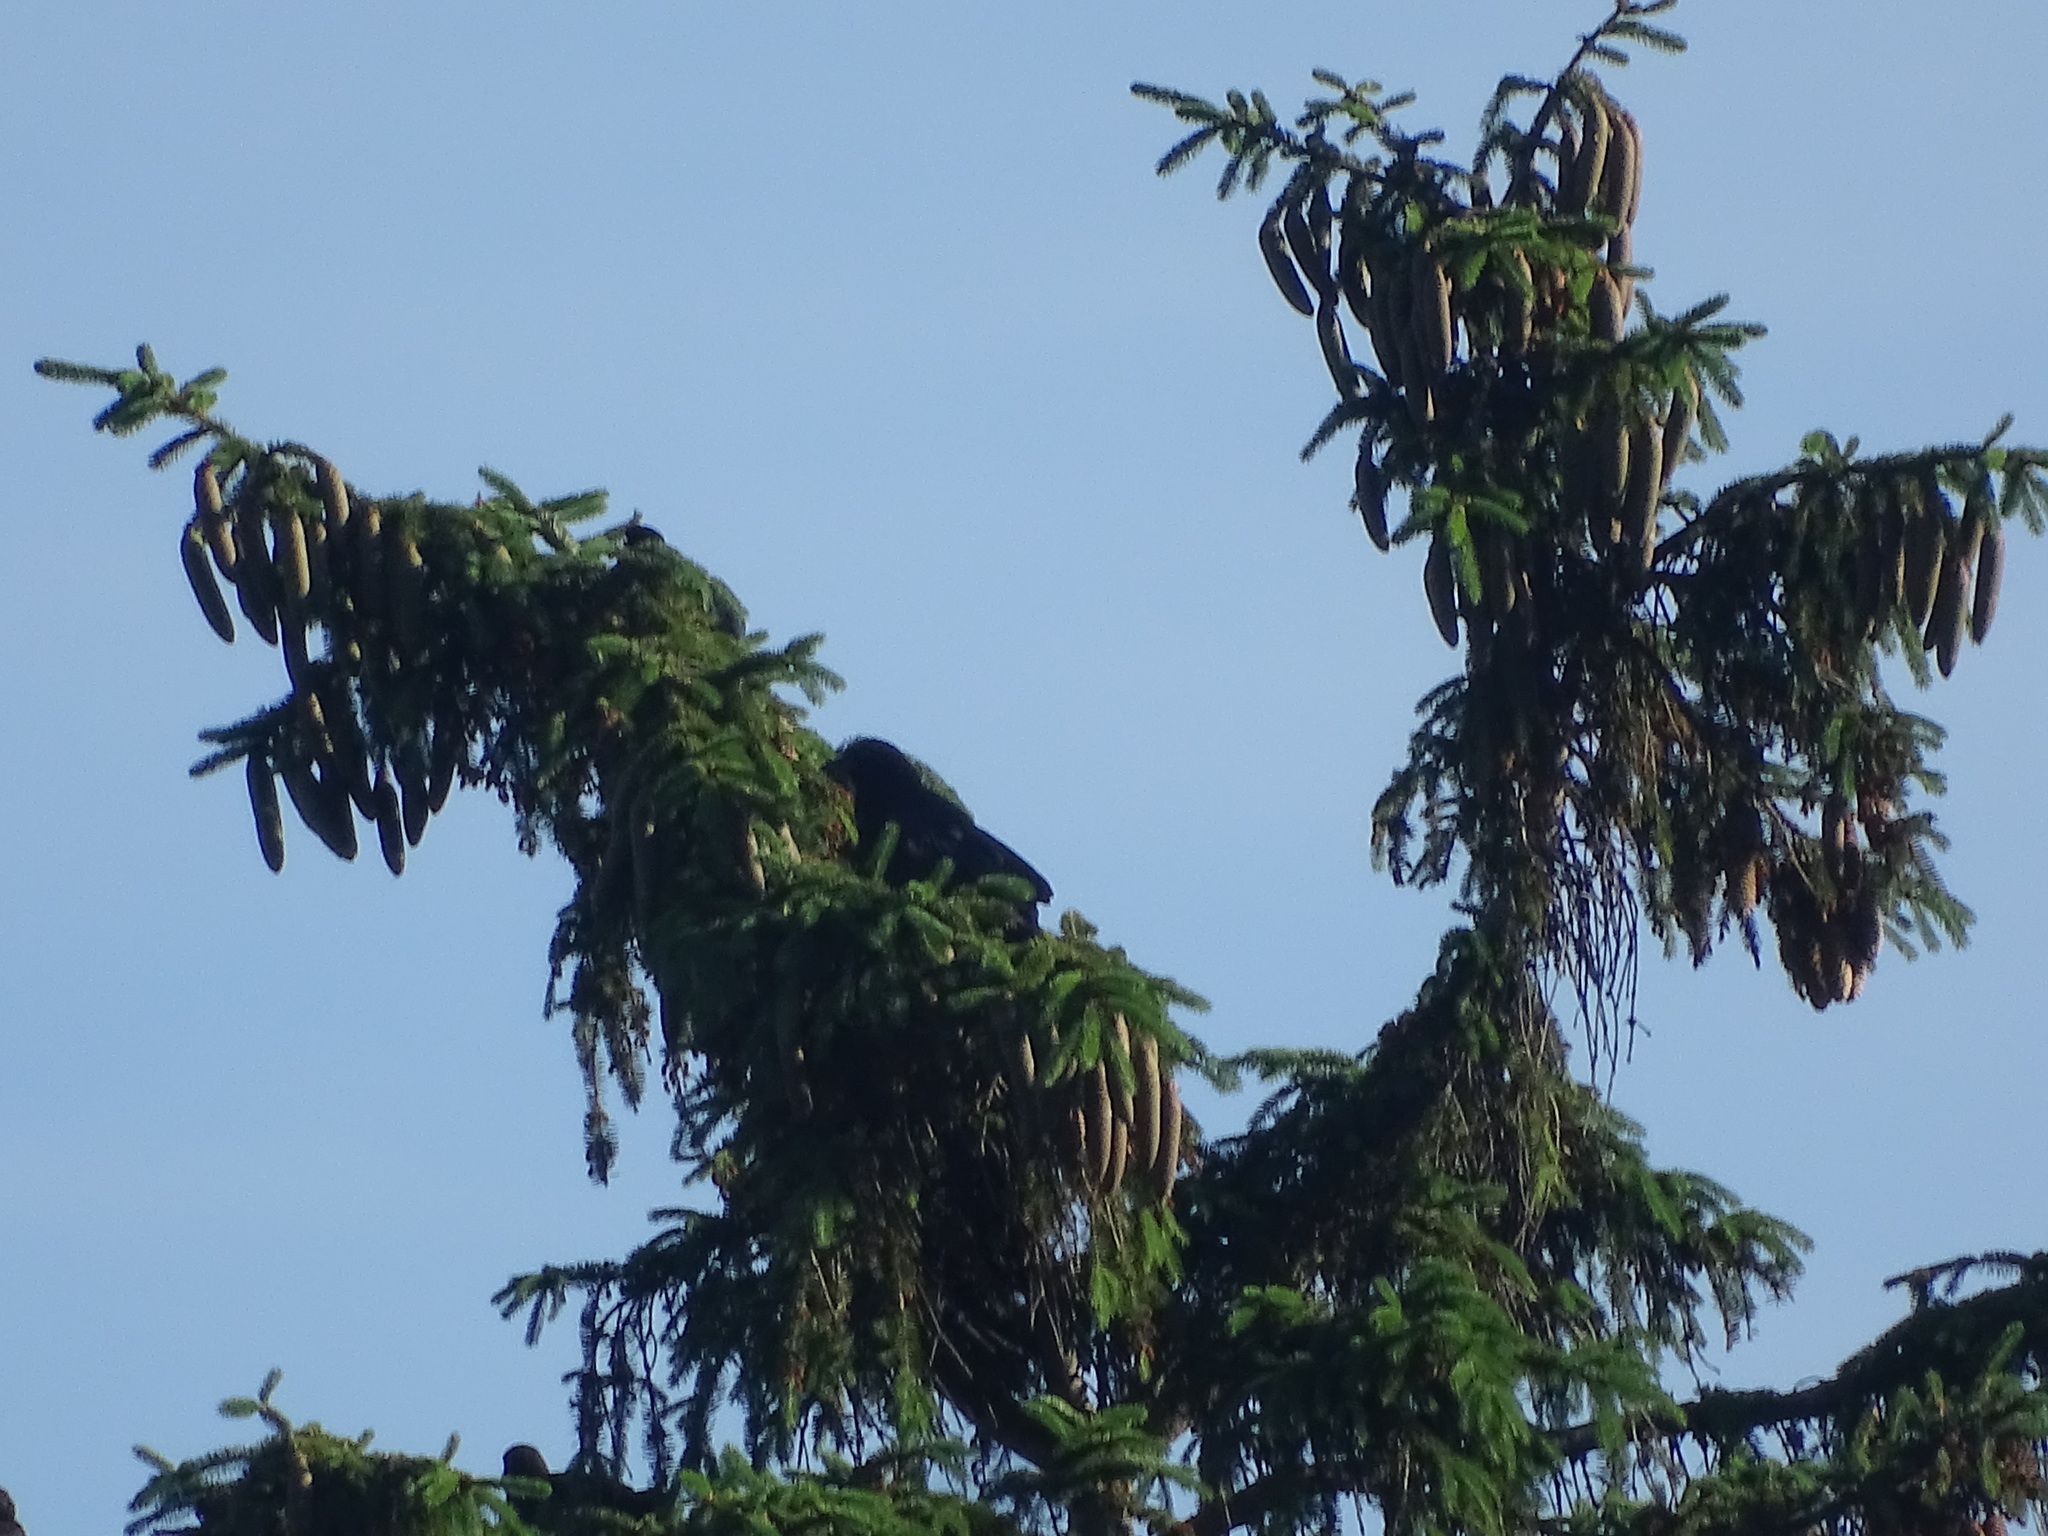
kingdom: Animalia
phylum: Chordata
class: Aves
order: Passeriformes
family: Corvidae
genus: Corvus
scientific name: Corvus brachyrhynchos
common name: American crow
